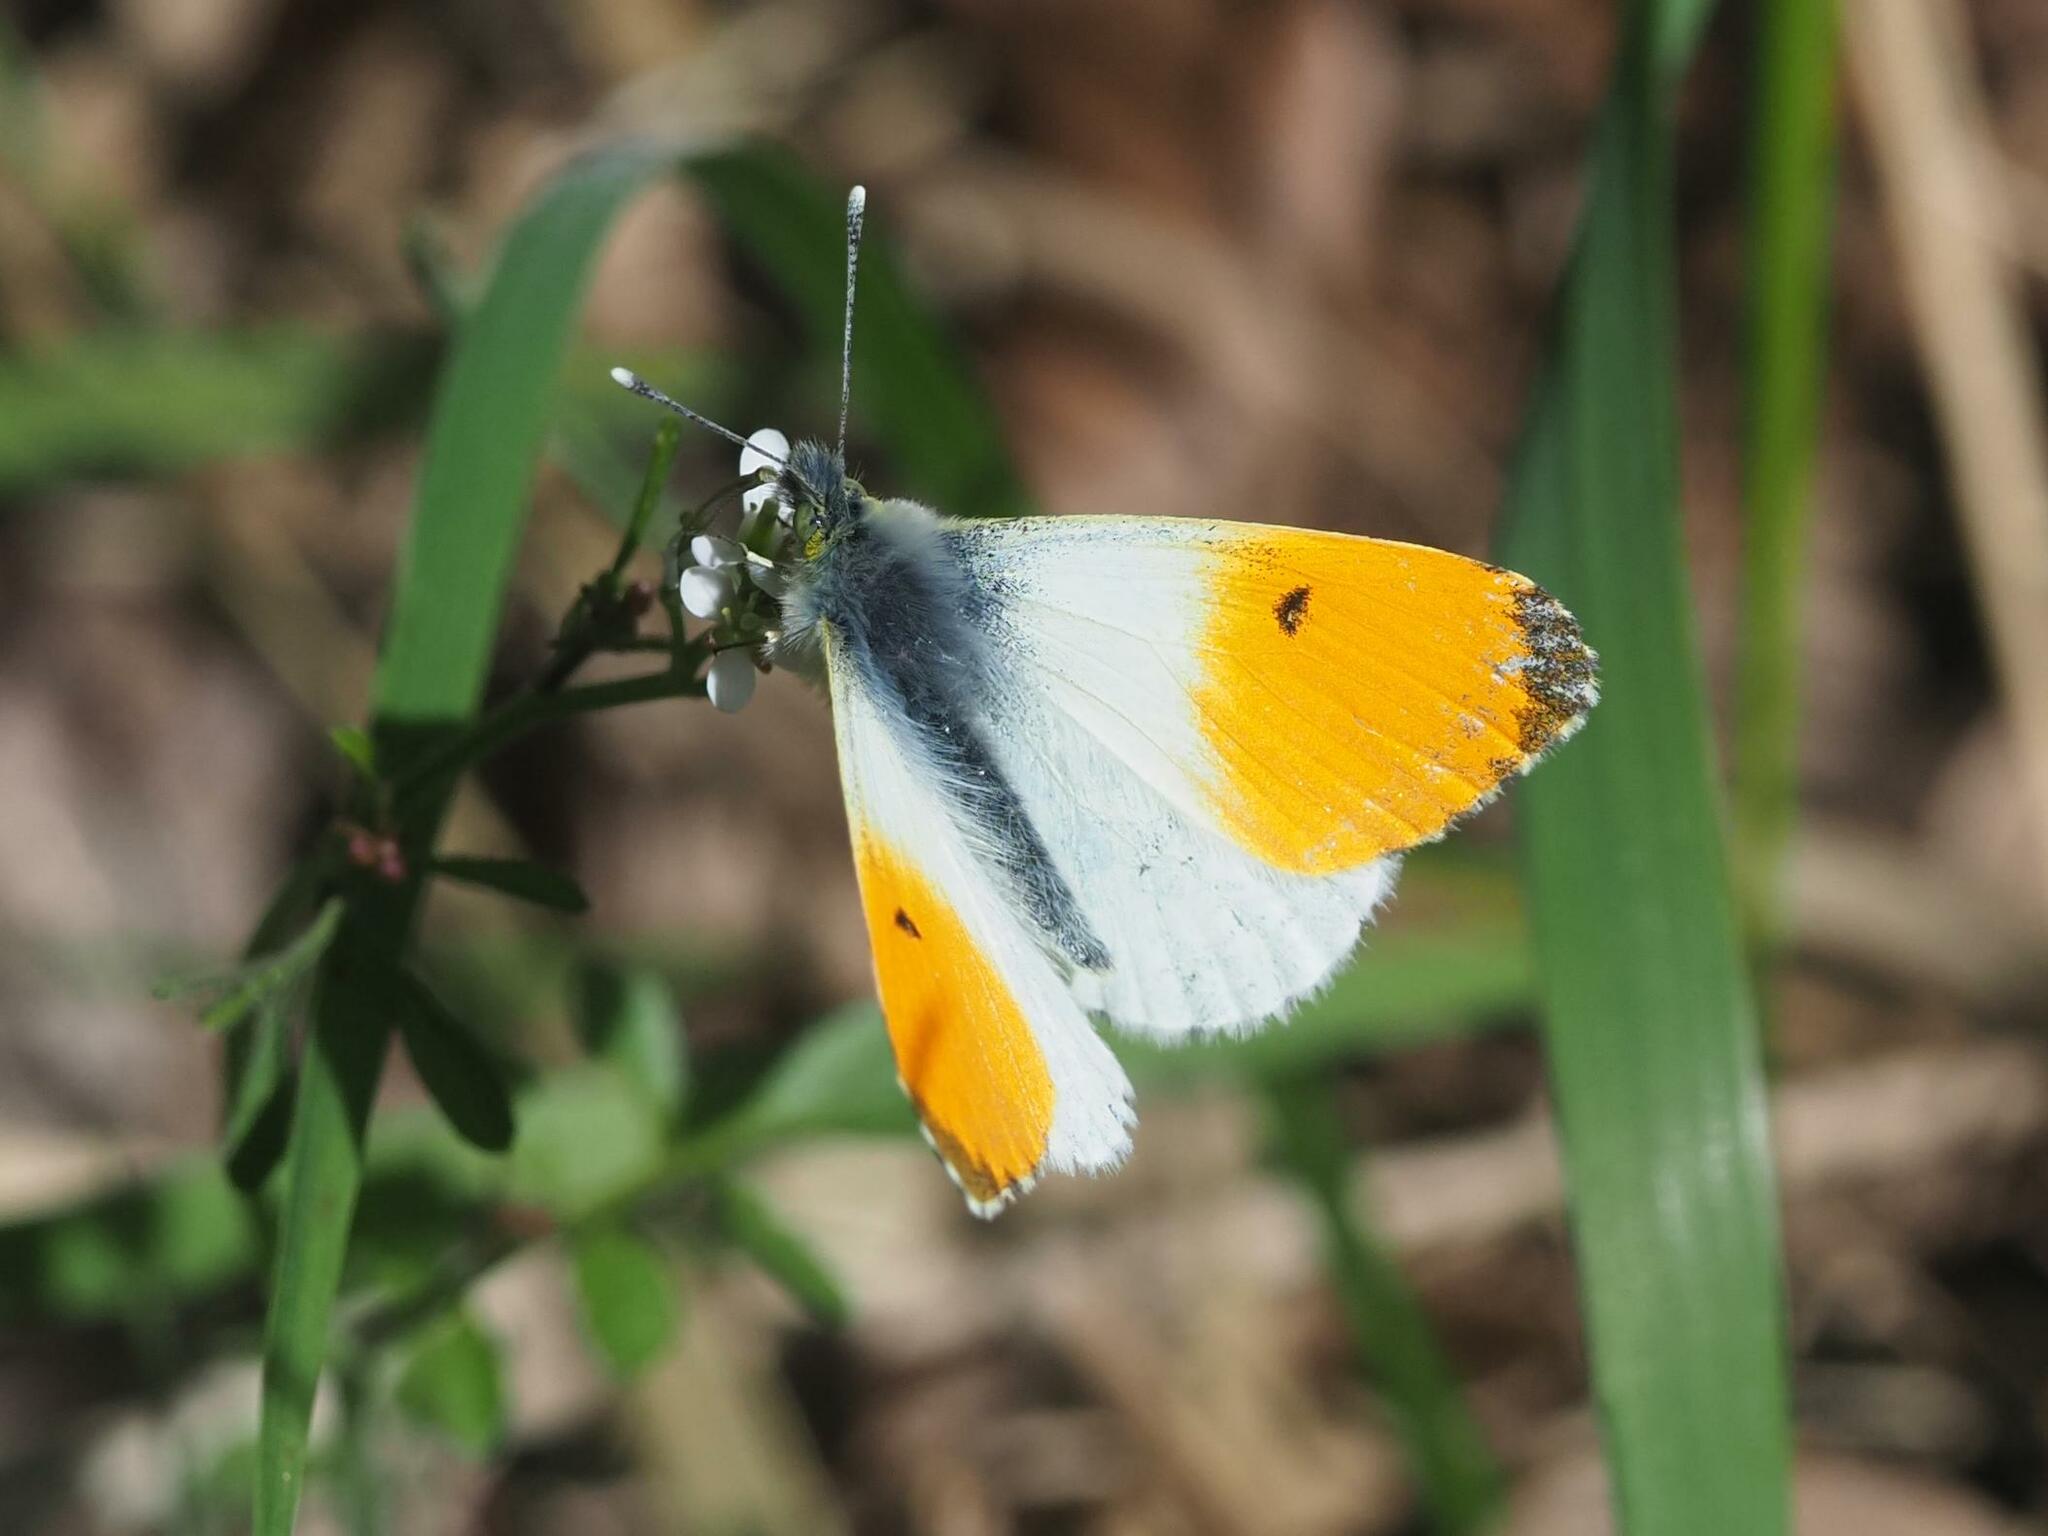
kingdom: Animalia
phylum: Arthropoda
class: Insecta
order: Lepidoptera
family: Pieridae
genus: Anthocharis
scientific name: Anthocharis cardamines
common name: Orange-tip
